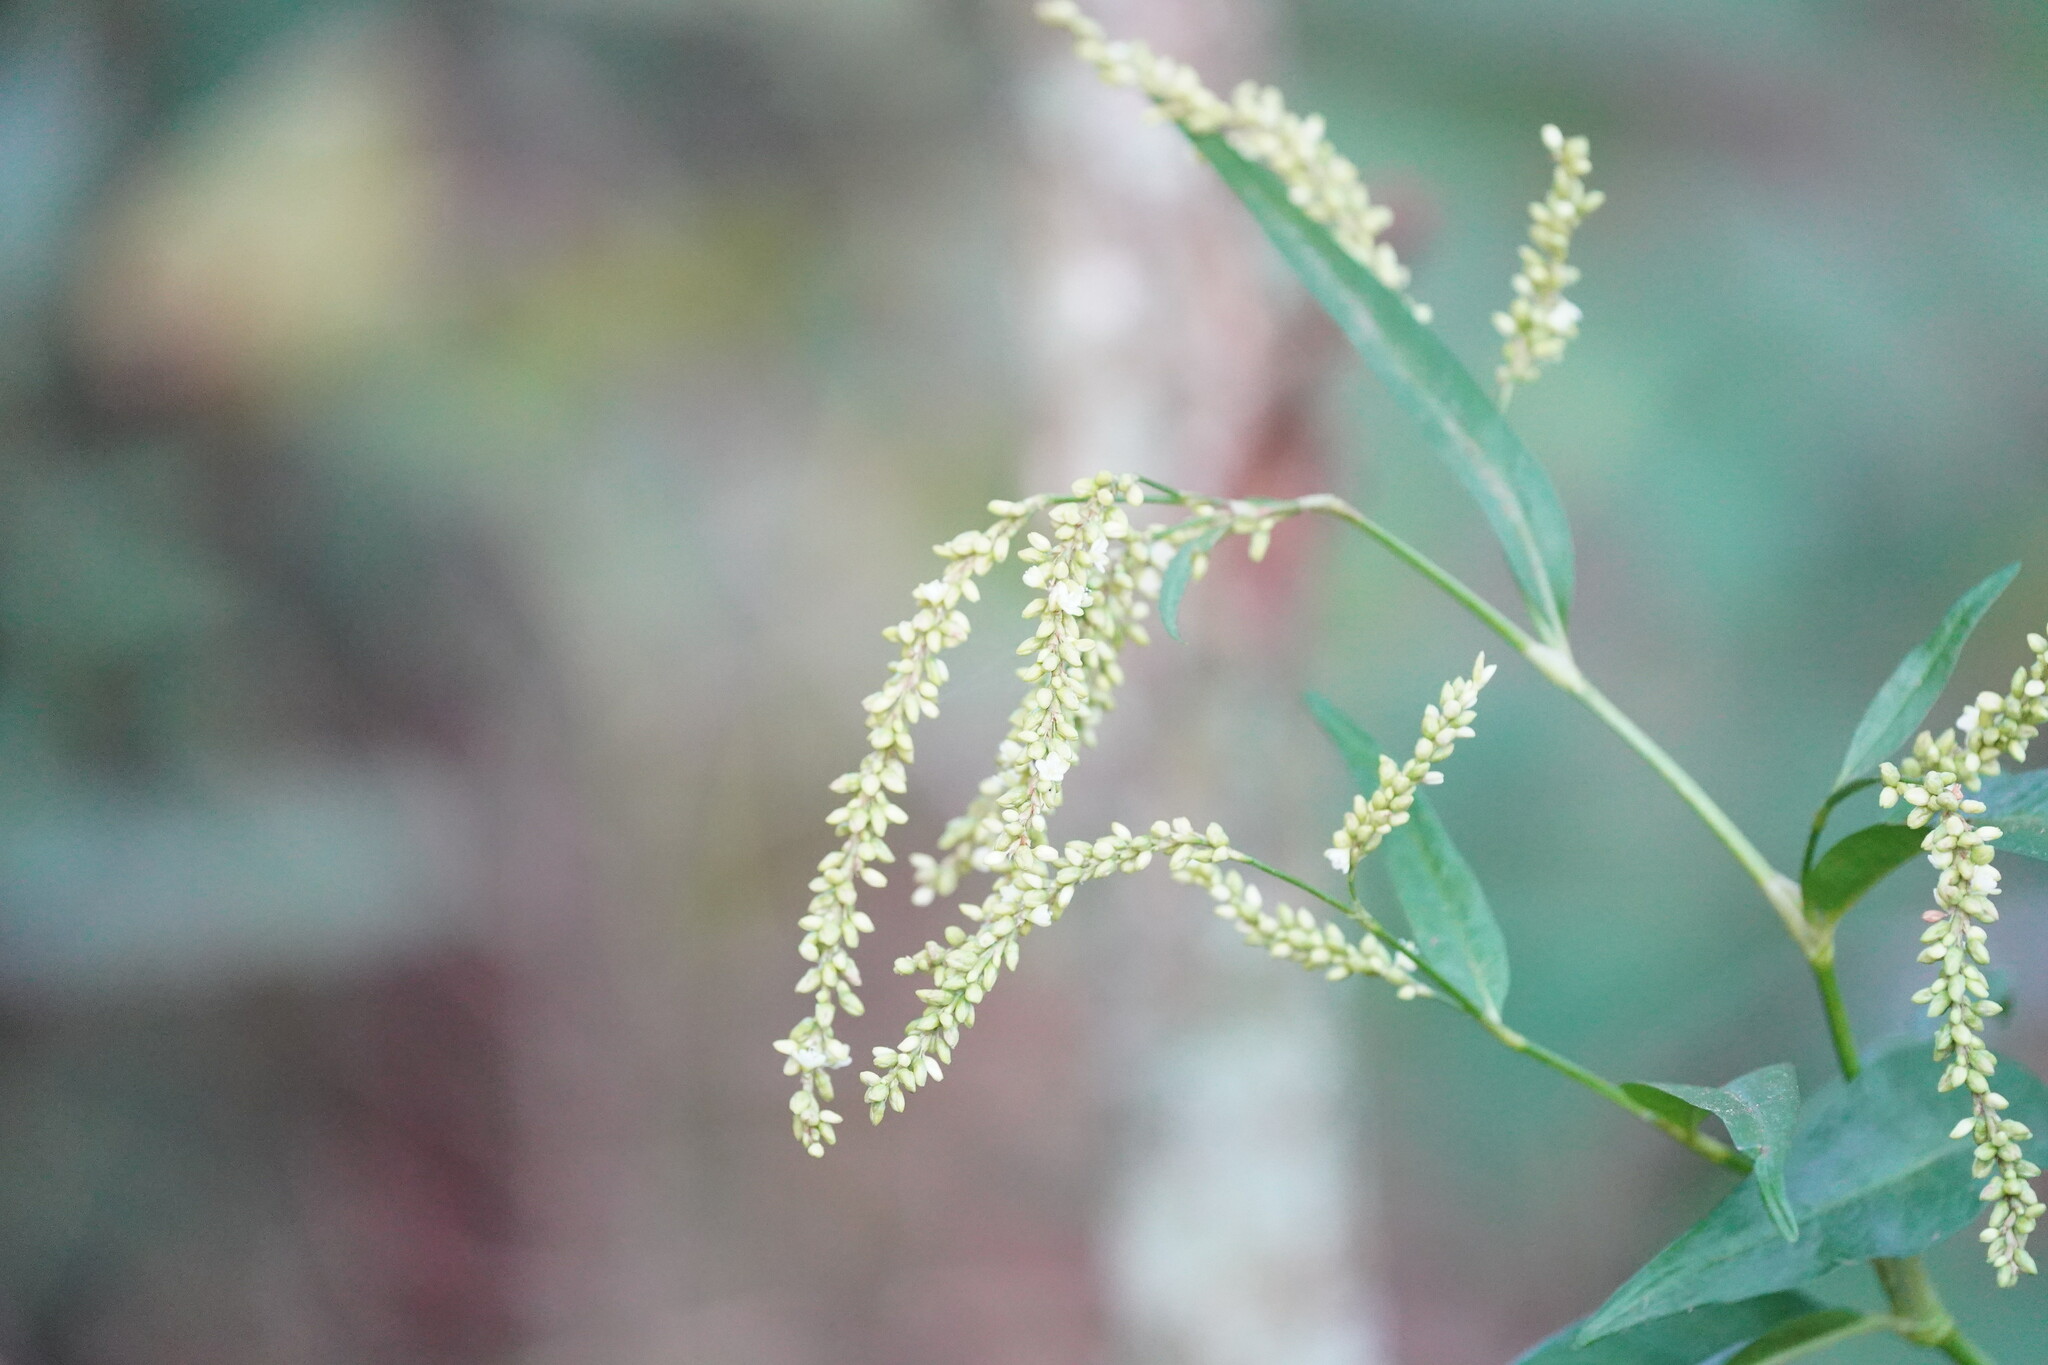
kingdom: Plantae
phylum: Tracheophyta
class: Magnoliopsida
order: Caryophyllales
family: Polygonaceae
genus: Persicaria
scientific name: Persicaria lapathifolia
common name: Curlytop knotweed
